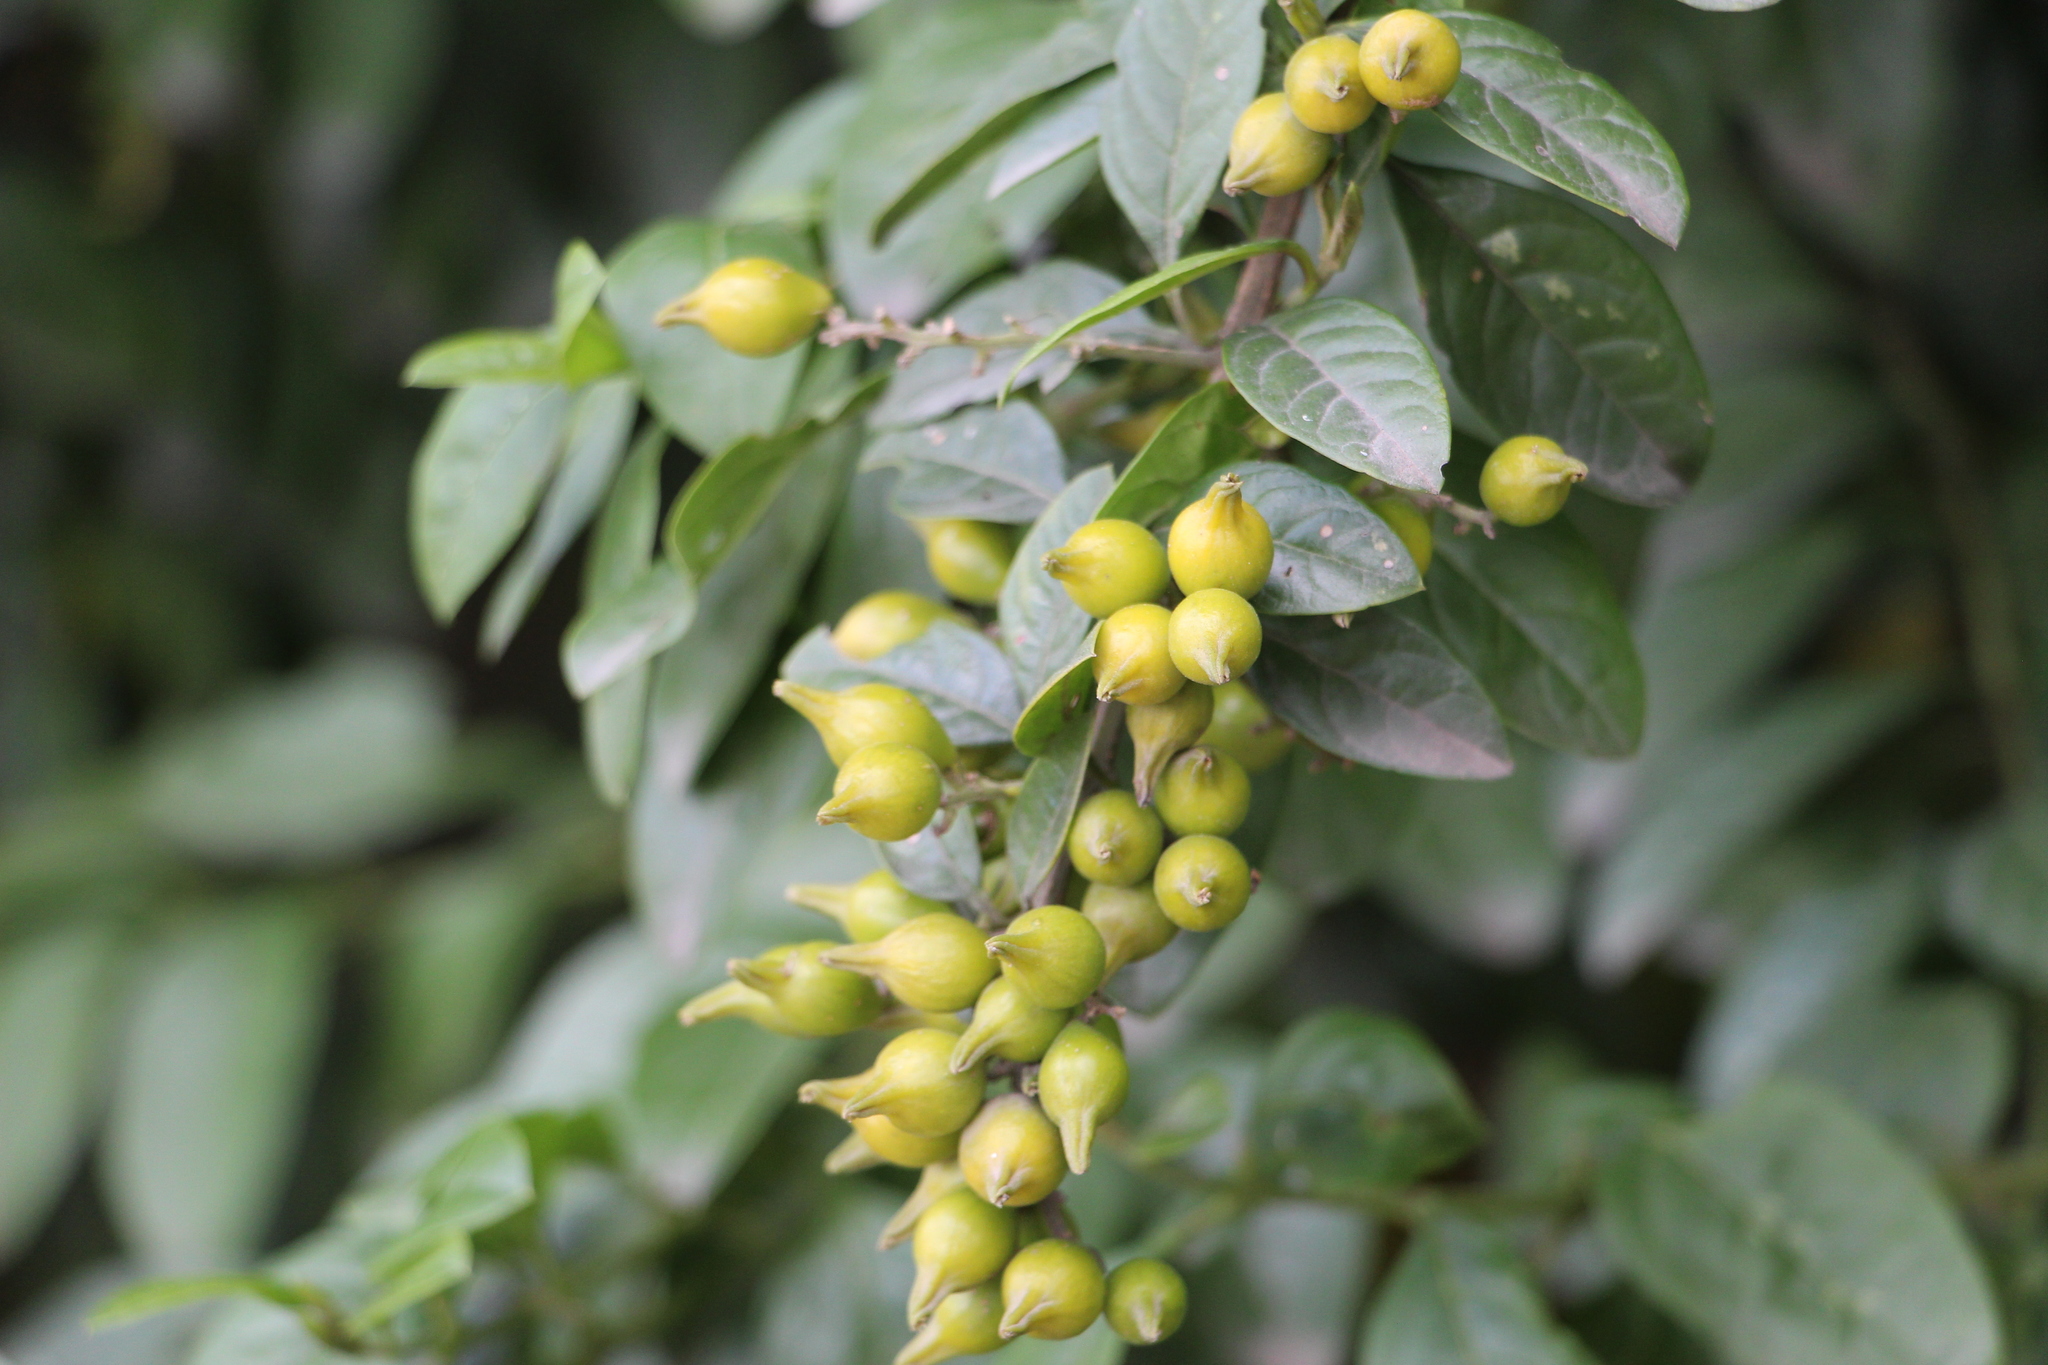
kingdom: Plantae
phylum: Tracheophyta
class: Magnoliopsida
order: Lamiales
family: Verbenaceae
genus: Duranta
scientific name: Duranta mutisii
